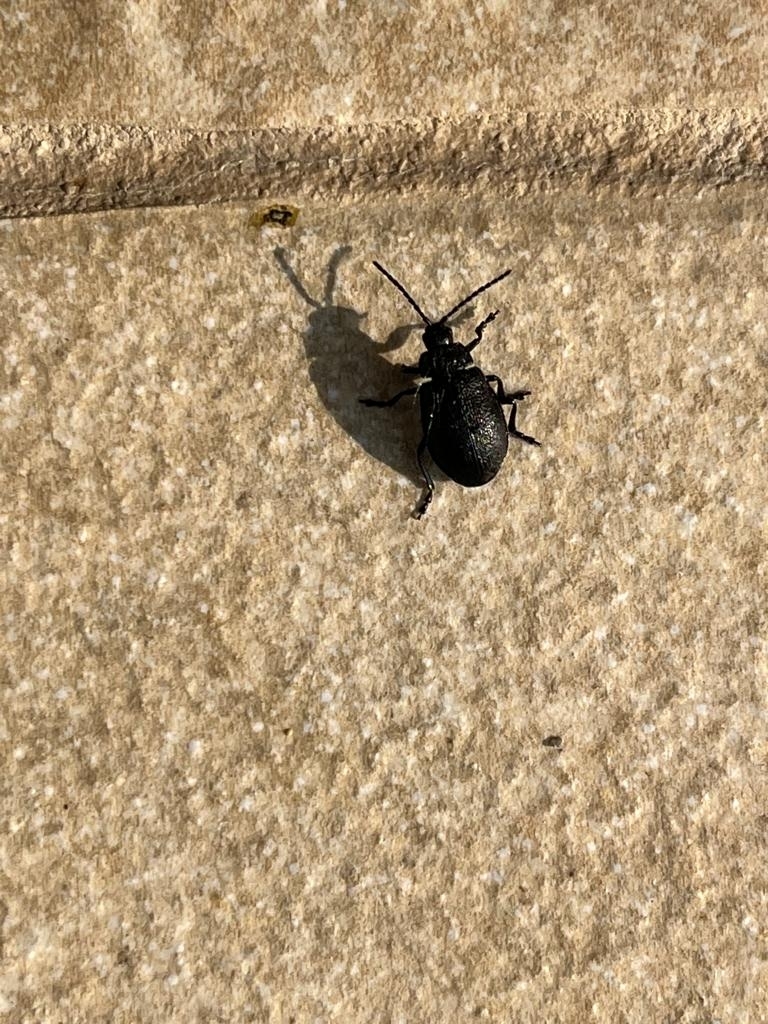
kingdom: Animalia
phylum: Arthropoda
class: Insecta
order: Coleoptera
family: Chrysomelidae
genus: Galeruca
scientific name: Galeruca tanaceti
